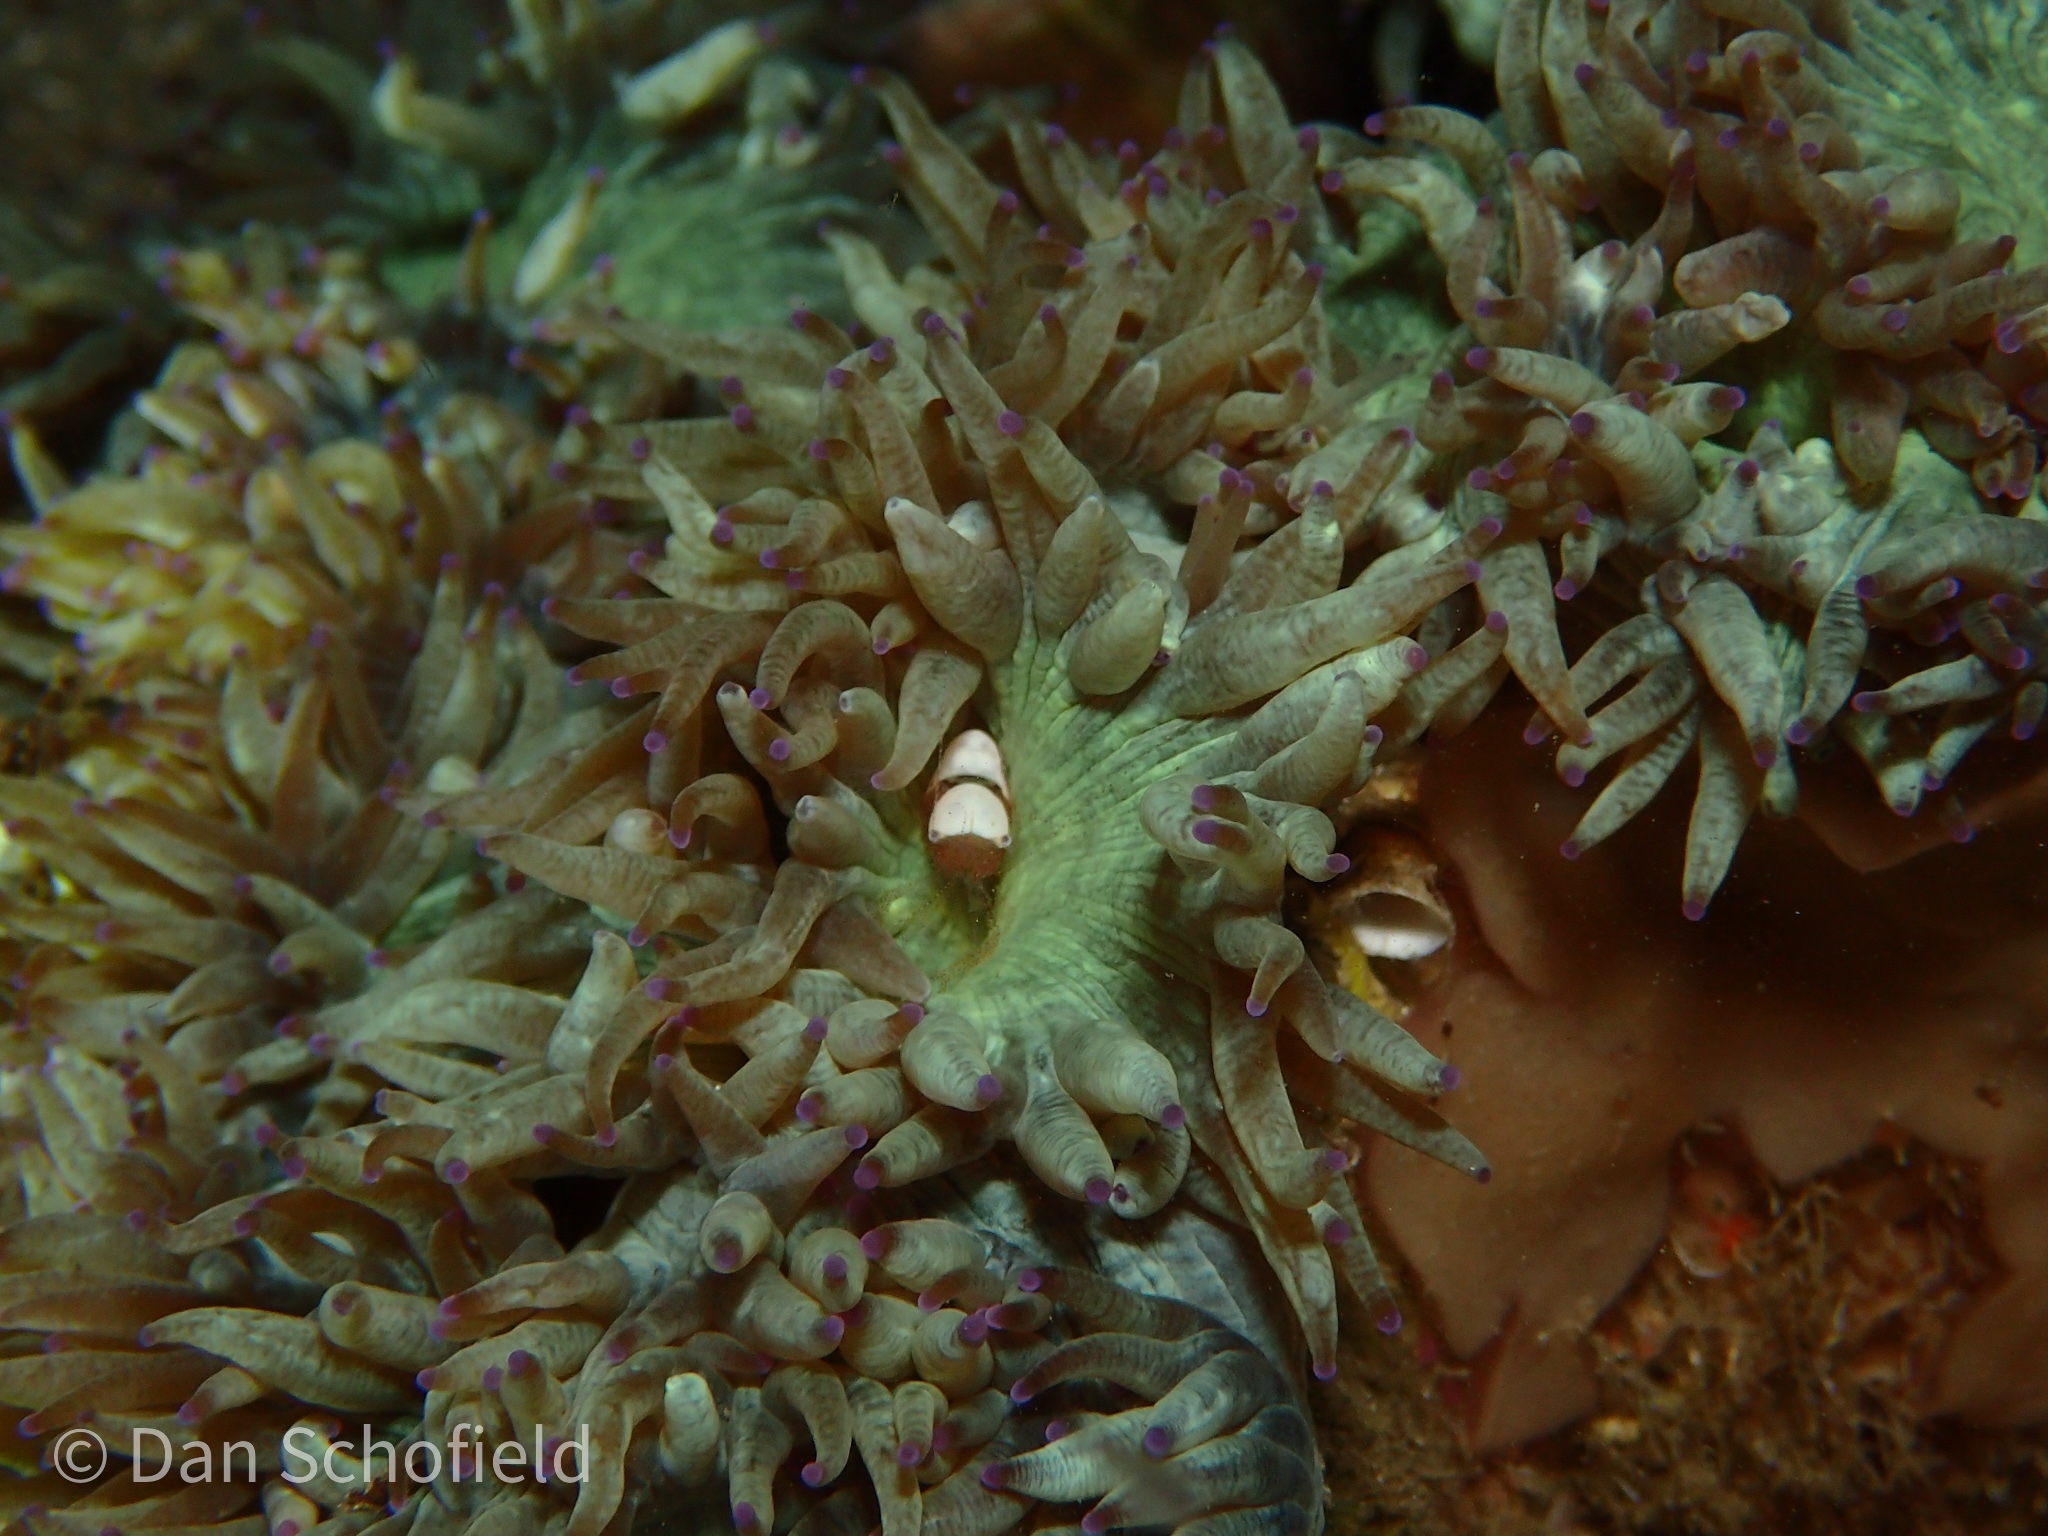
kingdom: Animalia
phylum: Cnidaria
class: Anthozoa
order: Scleractinia
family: Merulinidae
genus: Catalaphyllia
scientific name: Catalaphyllia jardinei
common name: Wonder coral
